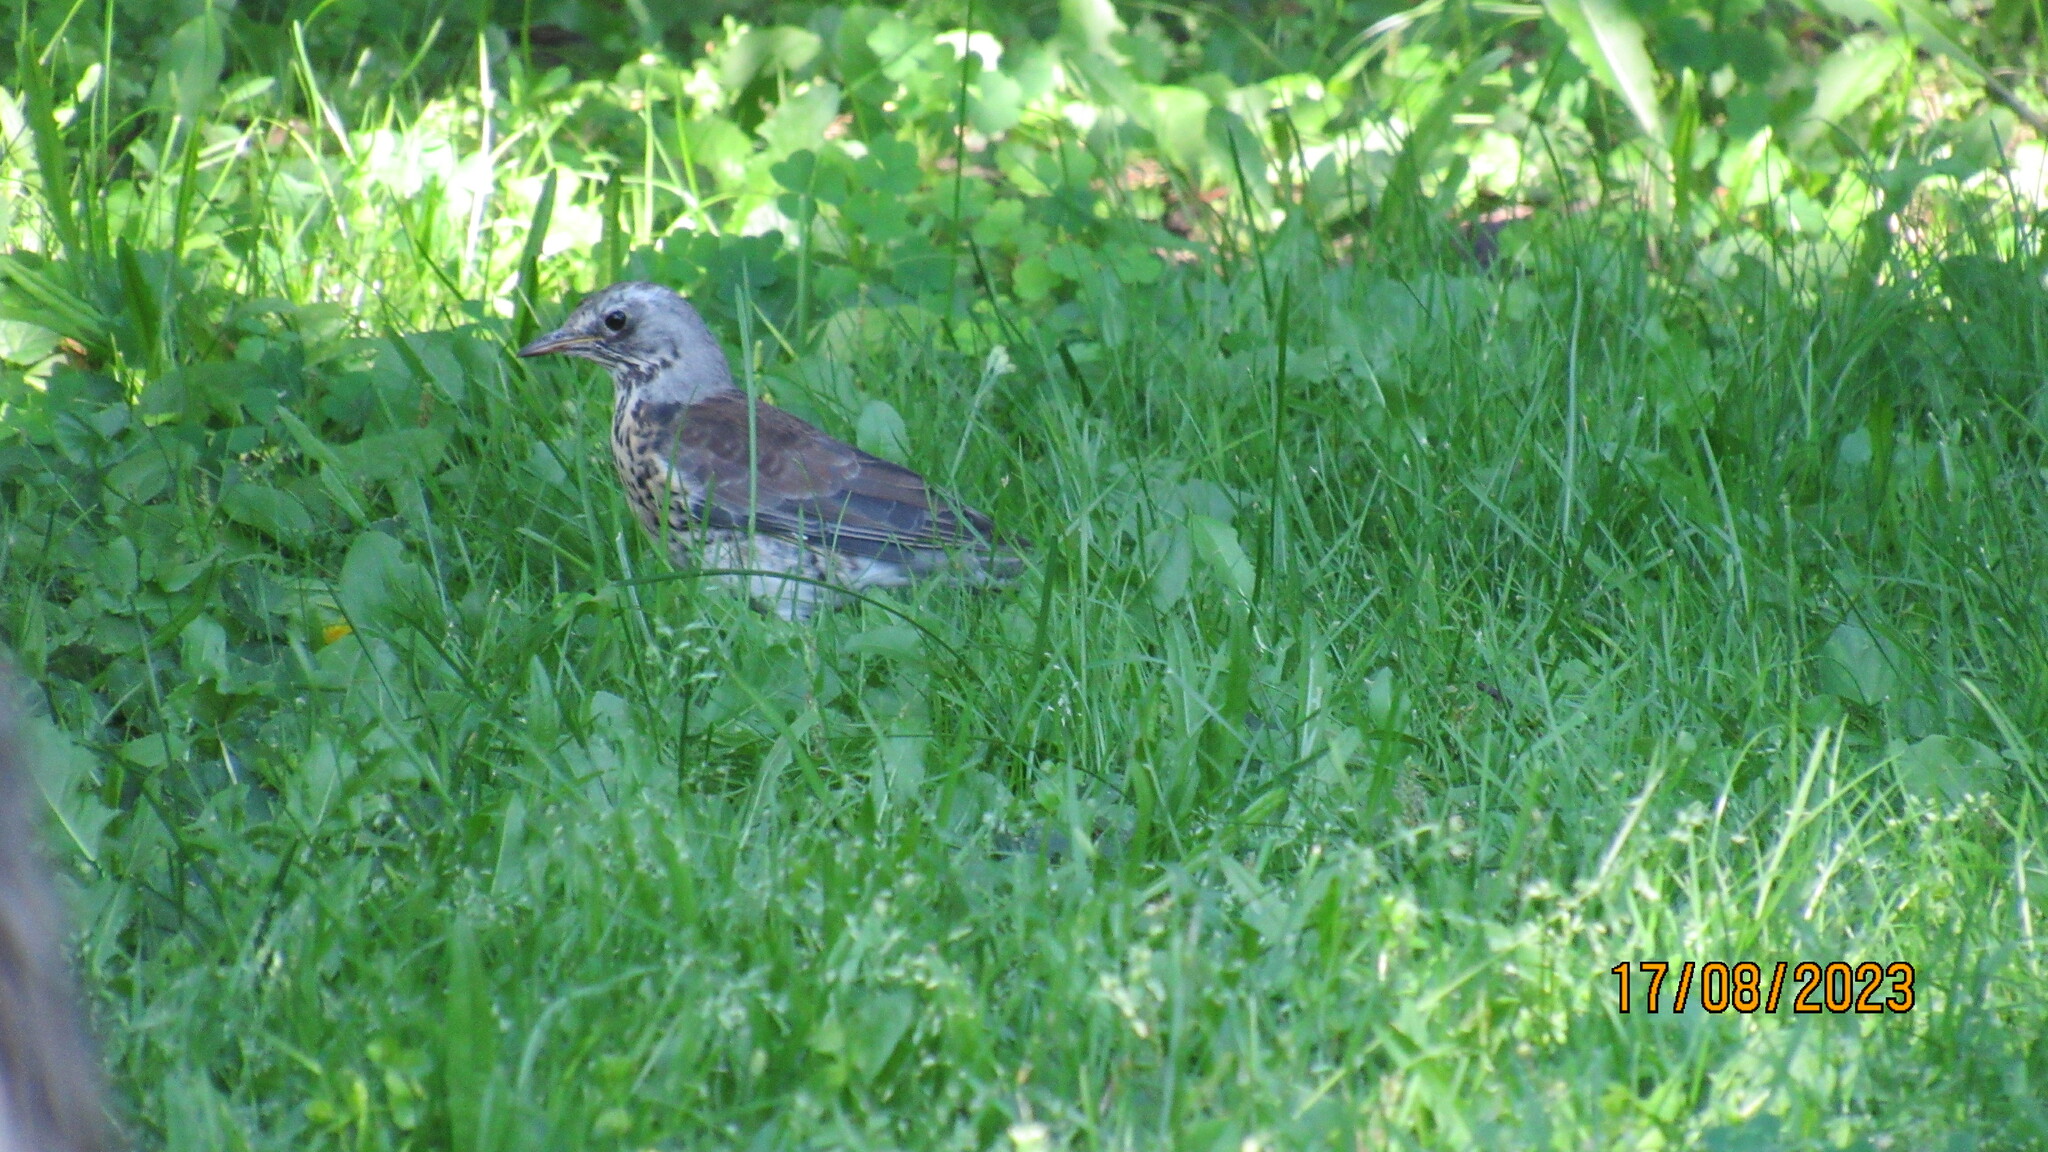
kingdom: Animalia
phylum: Chordata
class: Aves
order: Passeriformes
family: Turdidae
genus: Turdus
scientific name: Turdus pilaris
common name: Fieldfare
